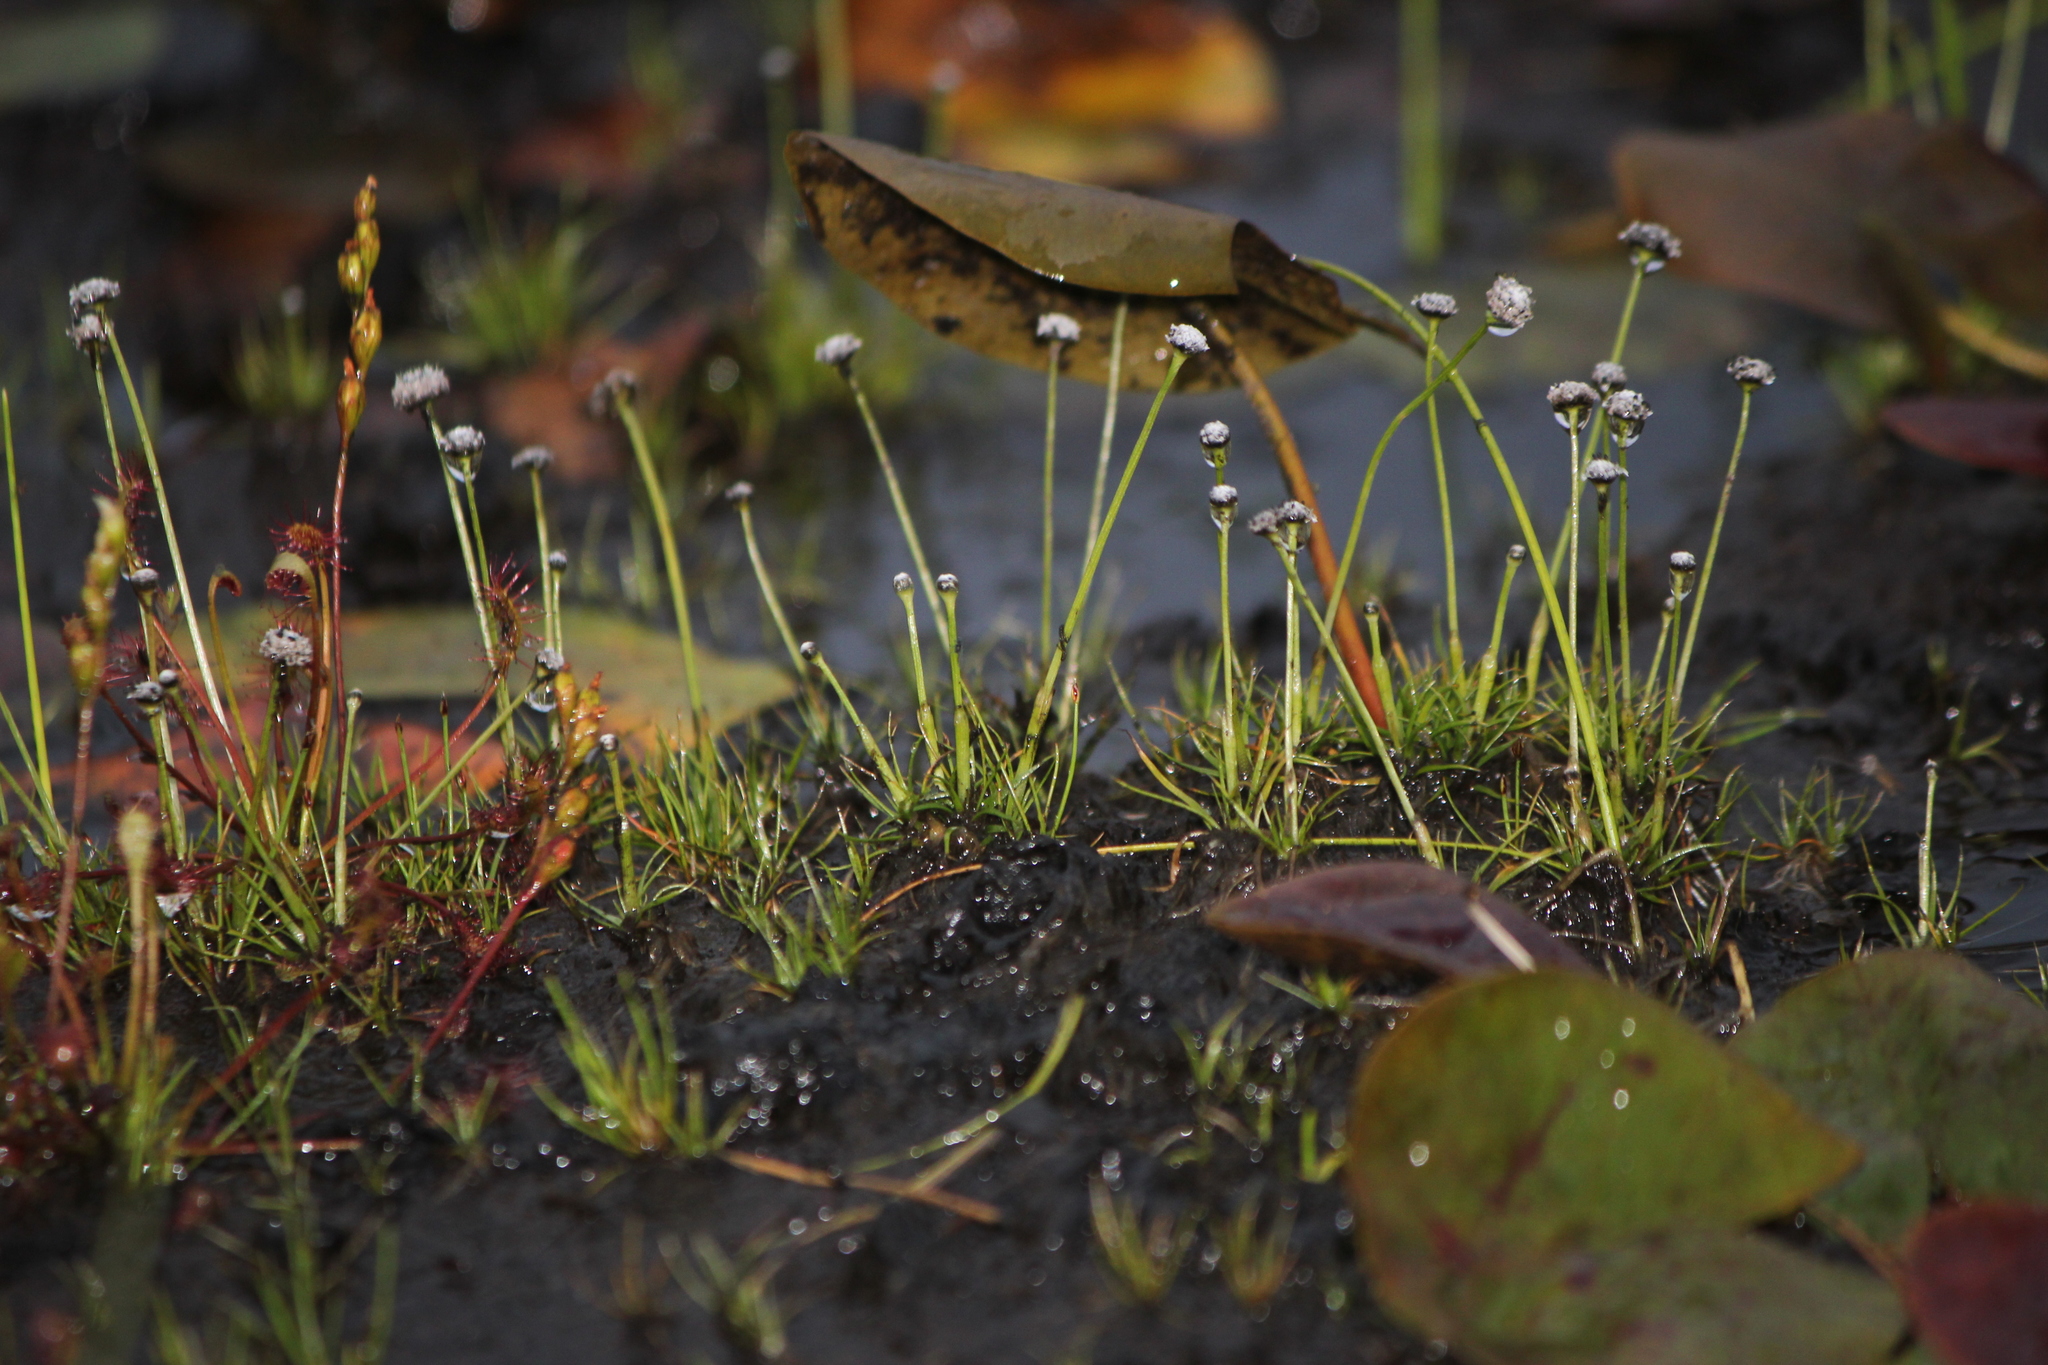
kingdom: Plantae
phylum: Tracheophyta
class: Liliopsida
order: Poales
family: Eriocaulaceae
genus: Eriocaulon
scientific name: Eriocaulon aquaticum
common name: Pipewort
